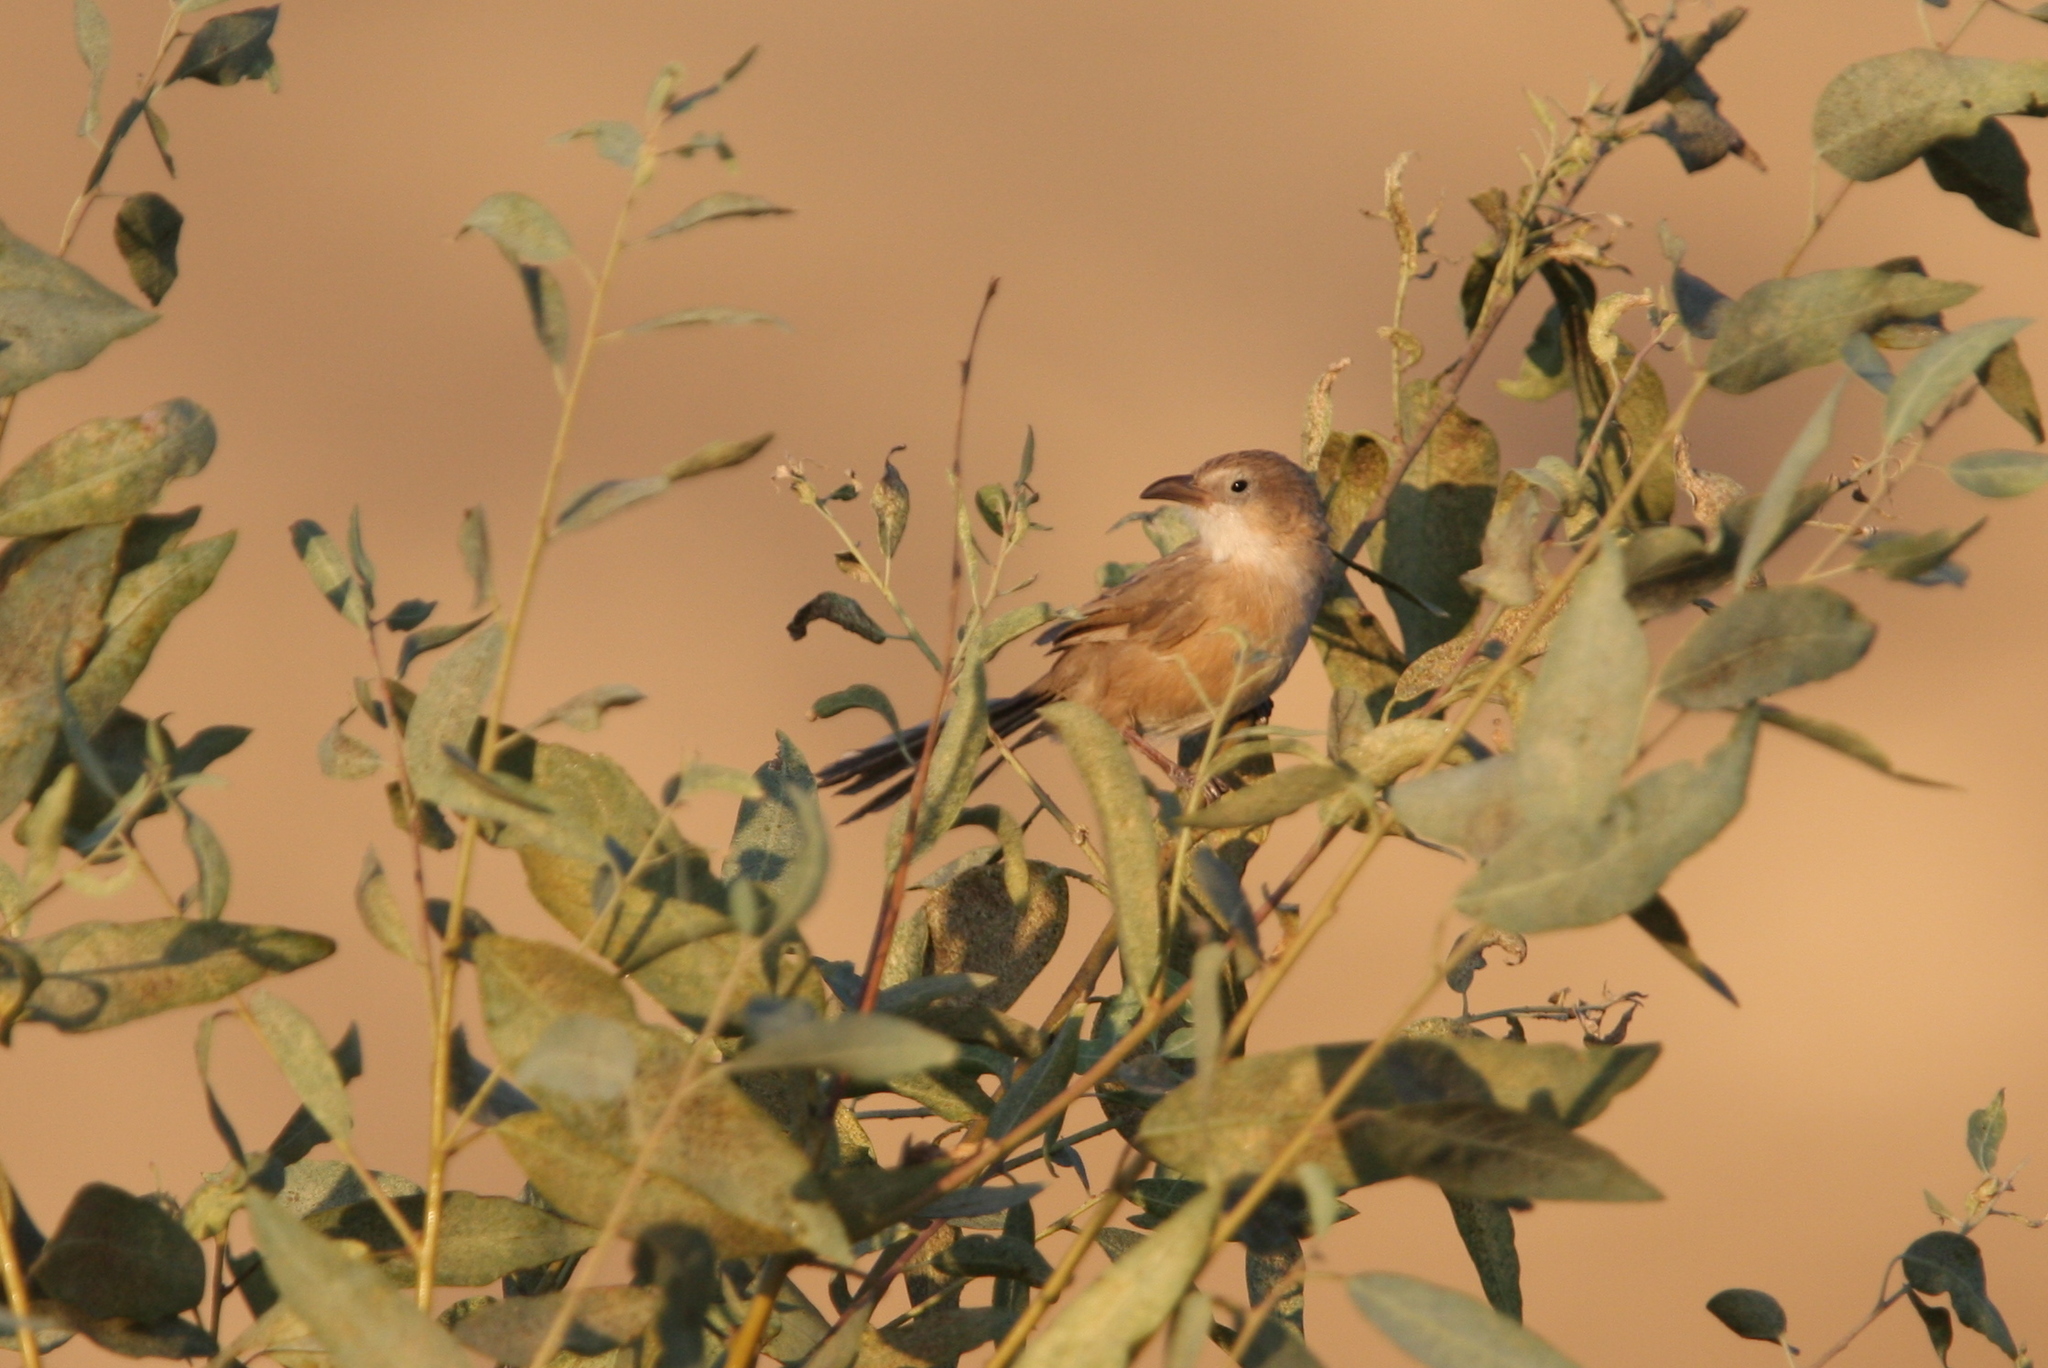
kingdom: Animalia
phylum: Chordata
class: Aves
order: Passeriformes
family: Leiothrichidae
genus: Turdoides
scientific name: Turdoides altirostris
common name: Iraq babbler
